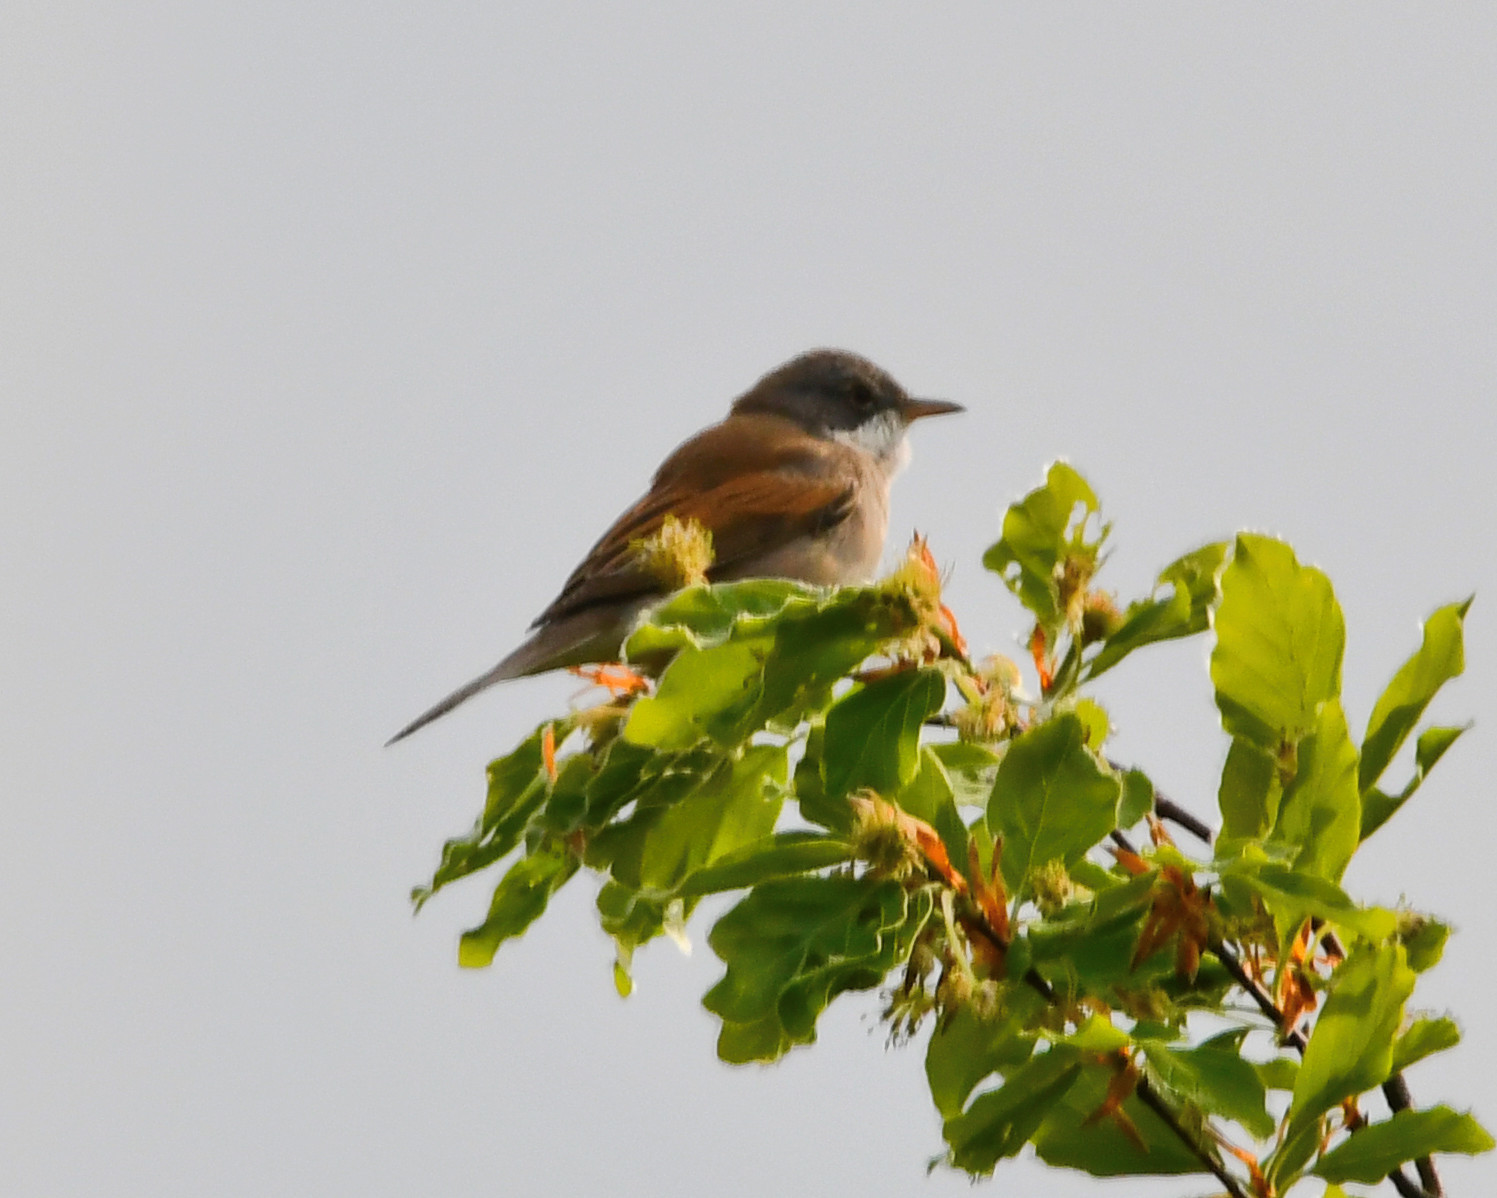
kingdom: Animalia
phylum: Chordata
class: Aves
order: Passeriformes
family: Sylviidae
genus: Sylvia
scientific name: Sylvia communis
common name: Common whitethroat
